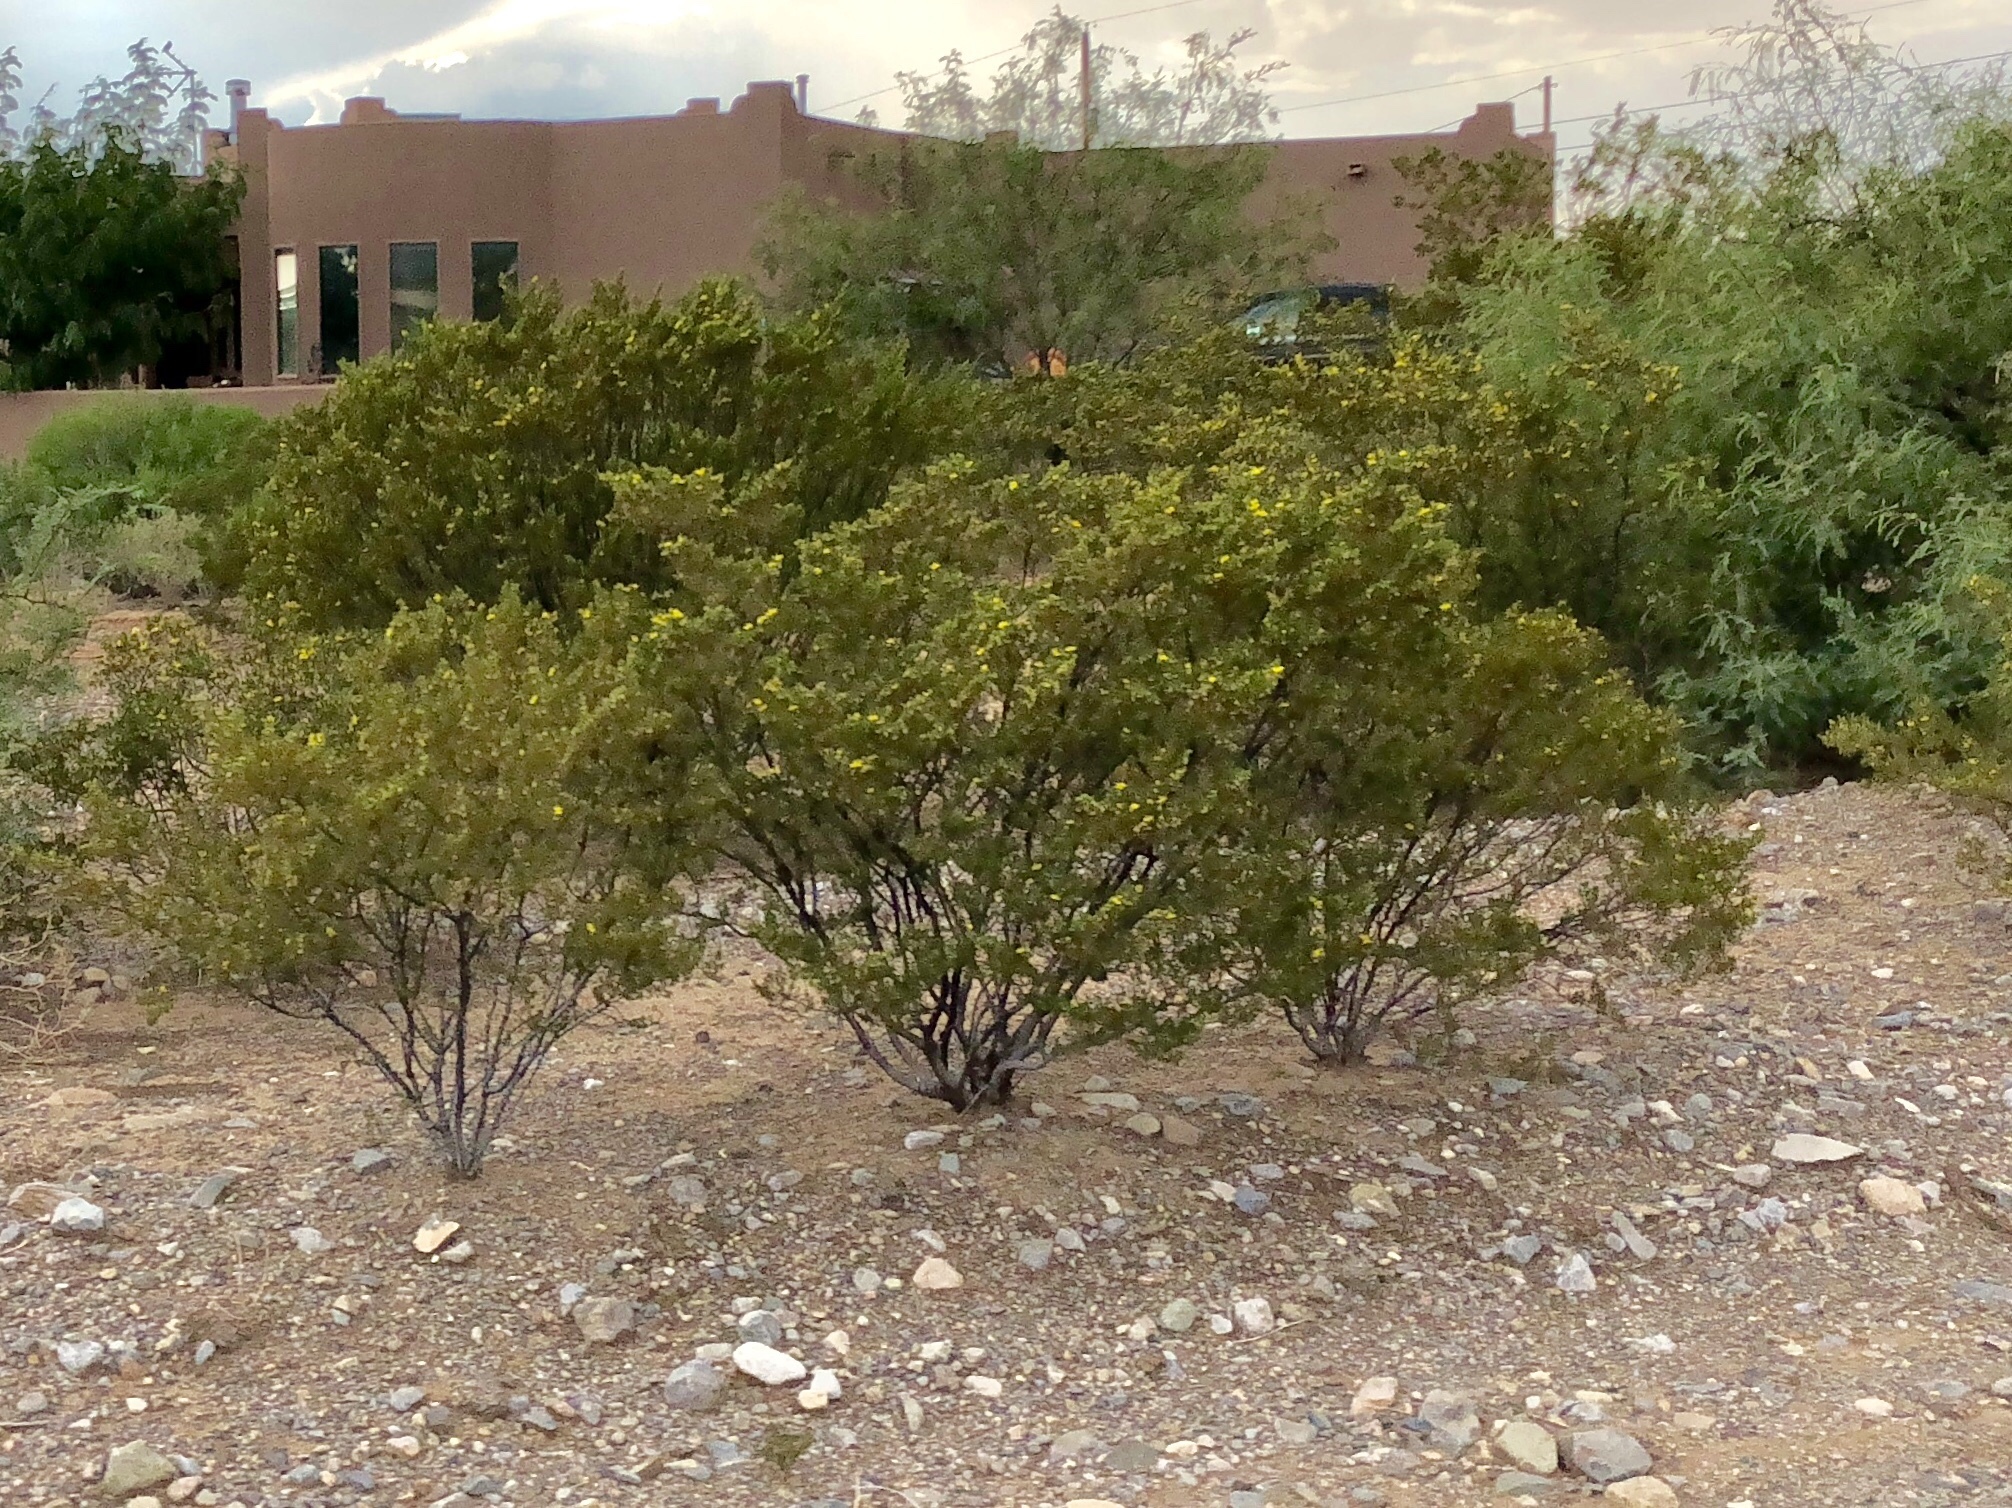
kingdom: Plantae
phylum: Tracheophyta
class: Magnoliopsida
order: Zygophyllales
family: Zygophyllaceae
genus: Larrea
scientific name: Larrea tridentata
